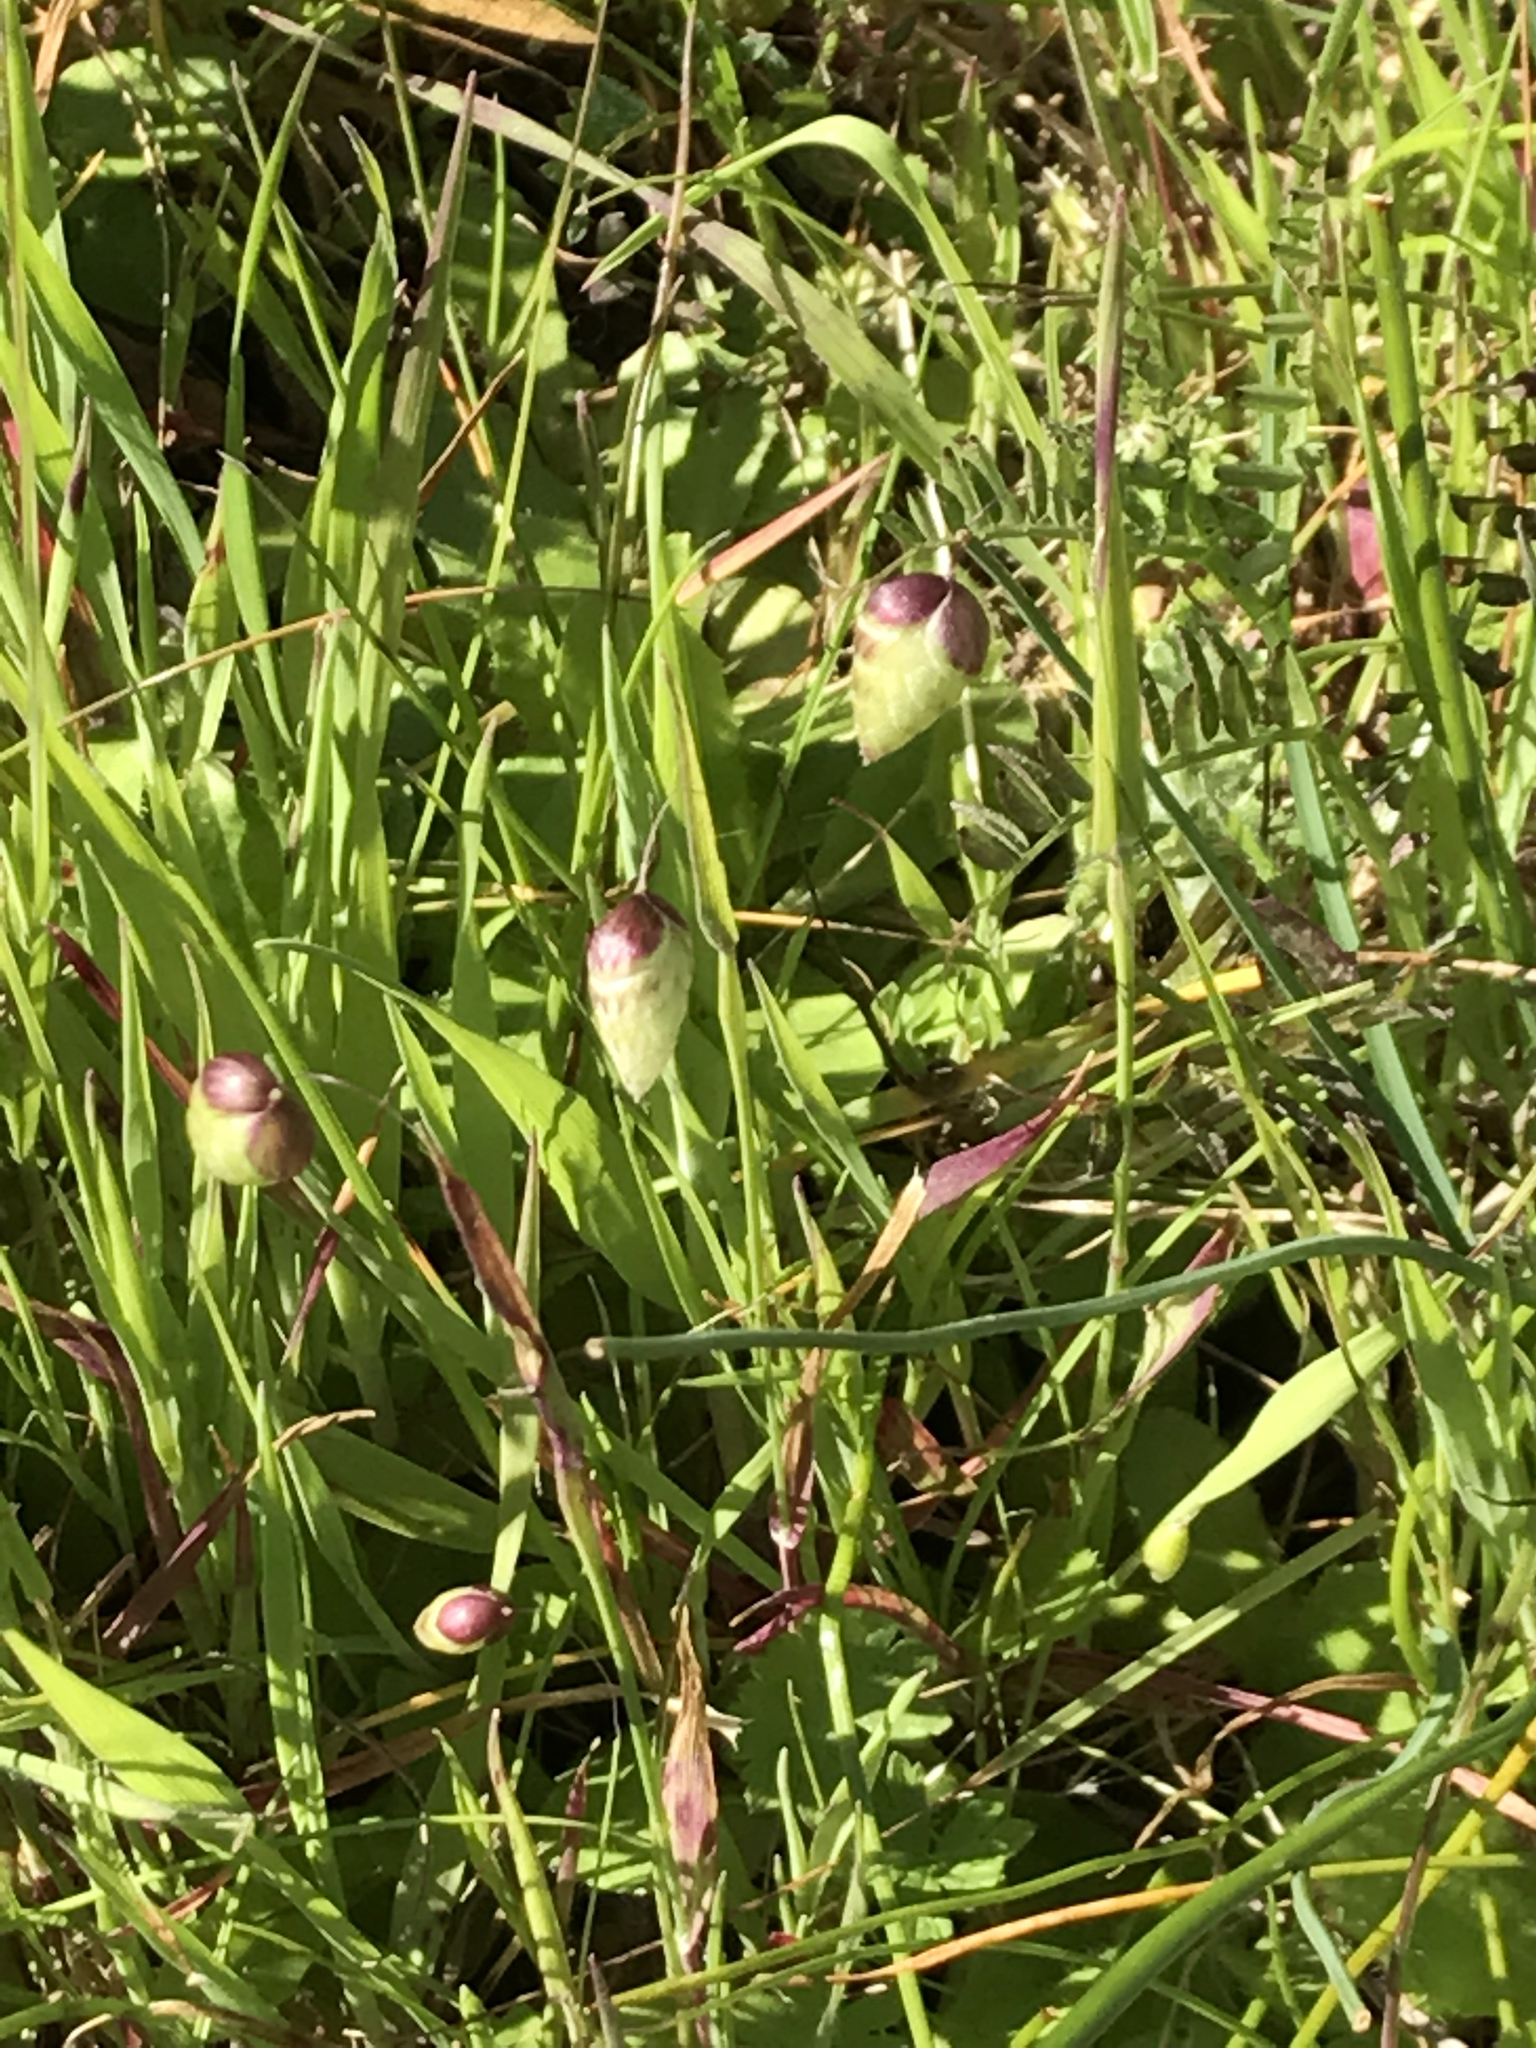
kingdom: Plantae
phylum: Tracheophyta
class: Liliopsida
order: Poales
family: Poaceae
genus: Briza
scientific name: Briza maxima
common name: Big quakinggrass
